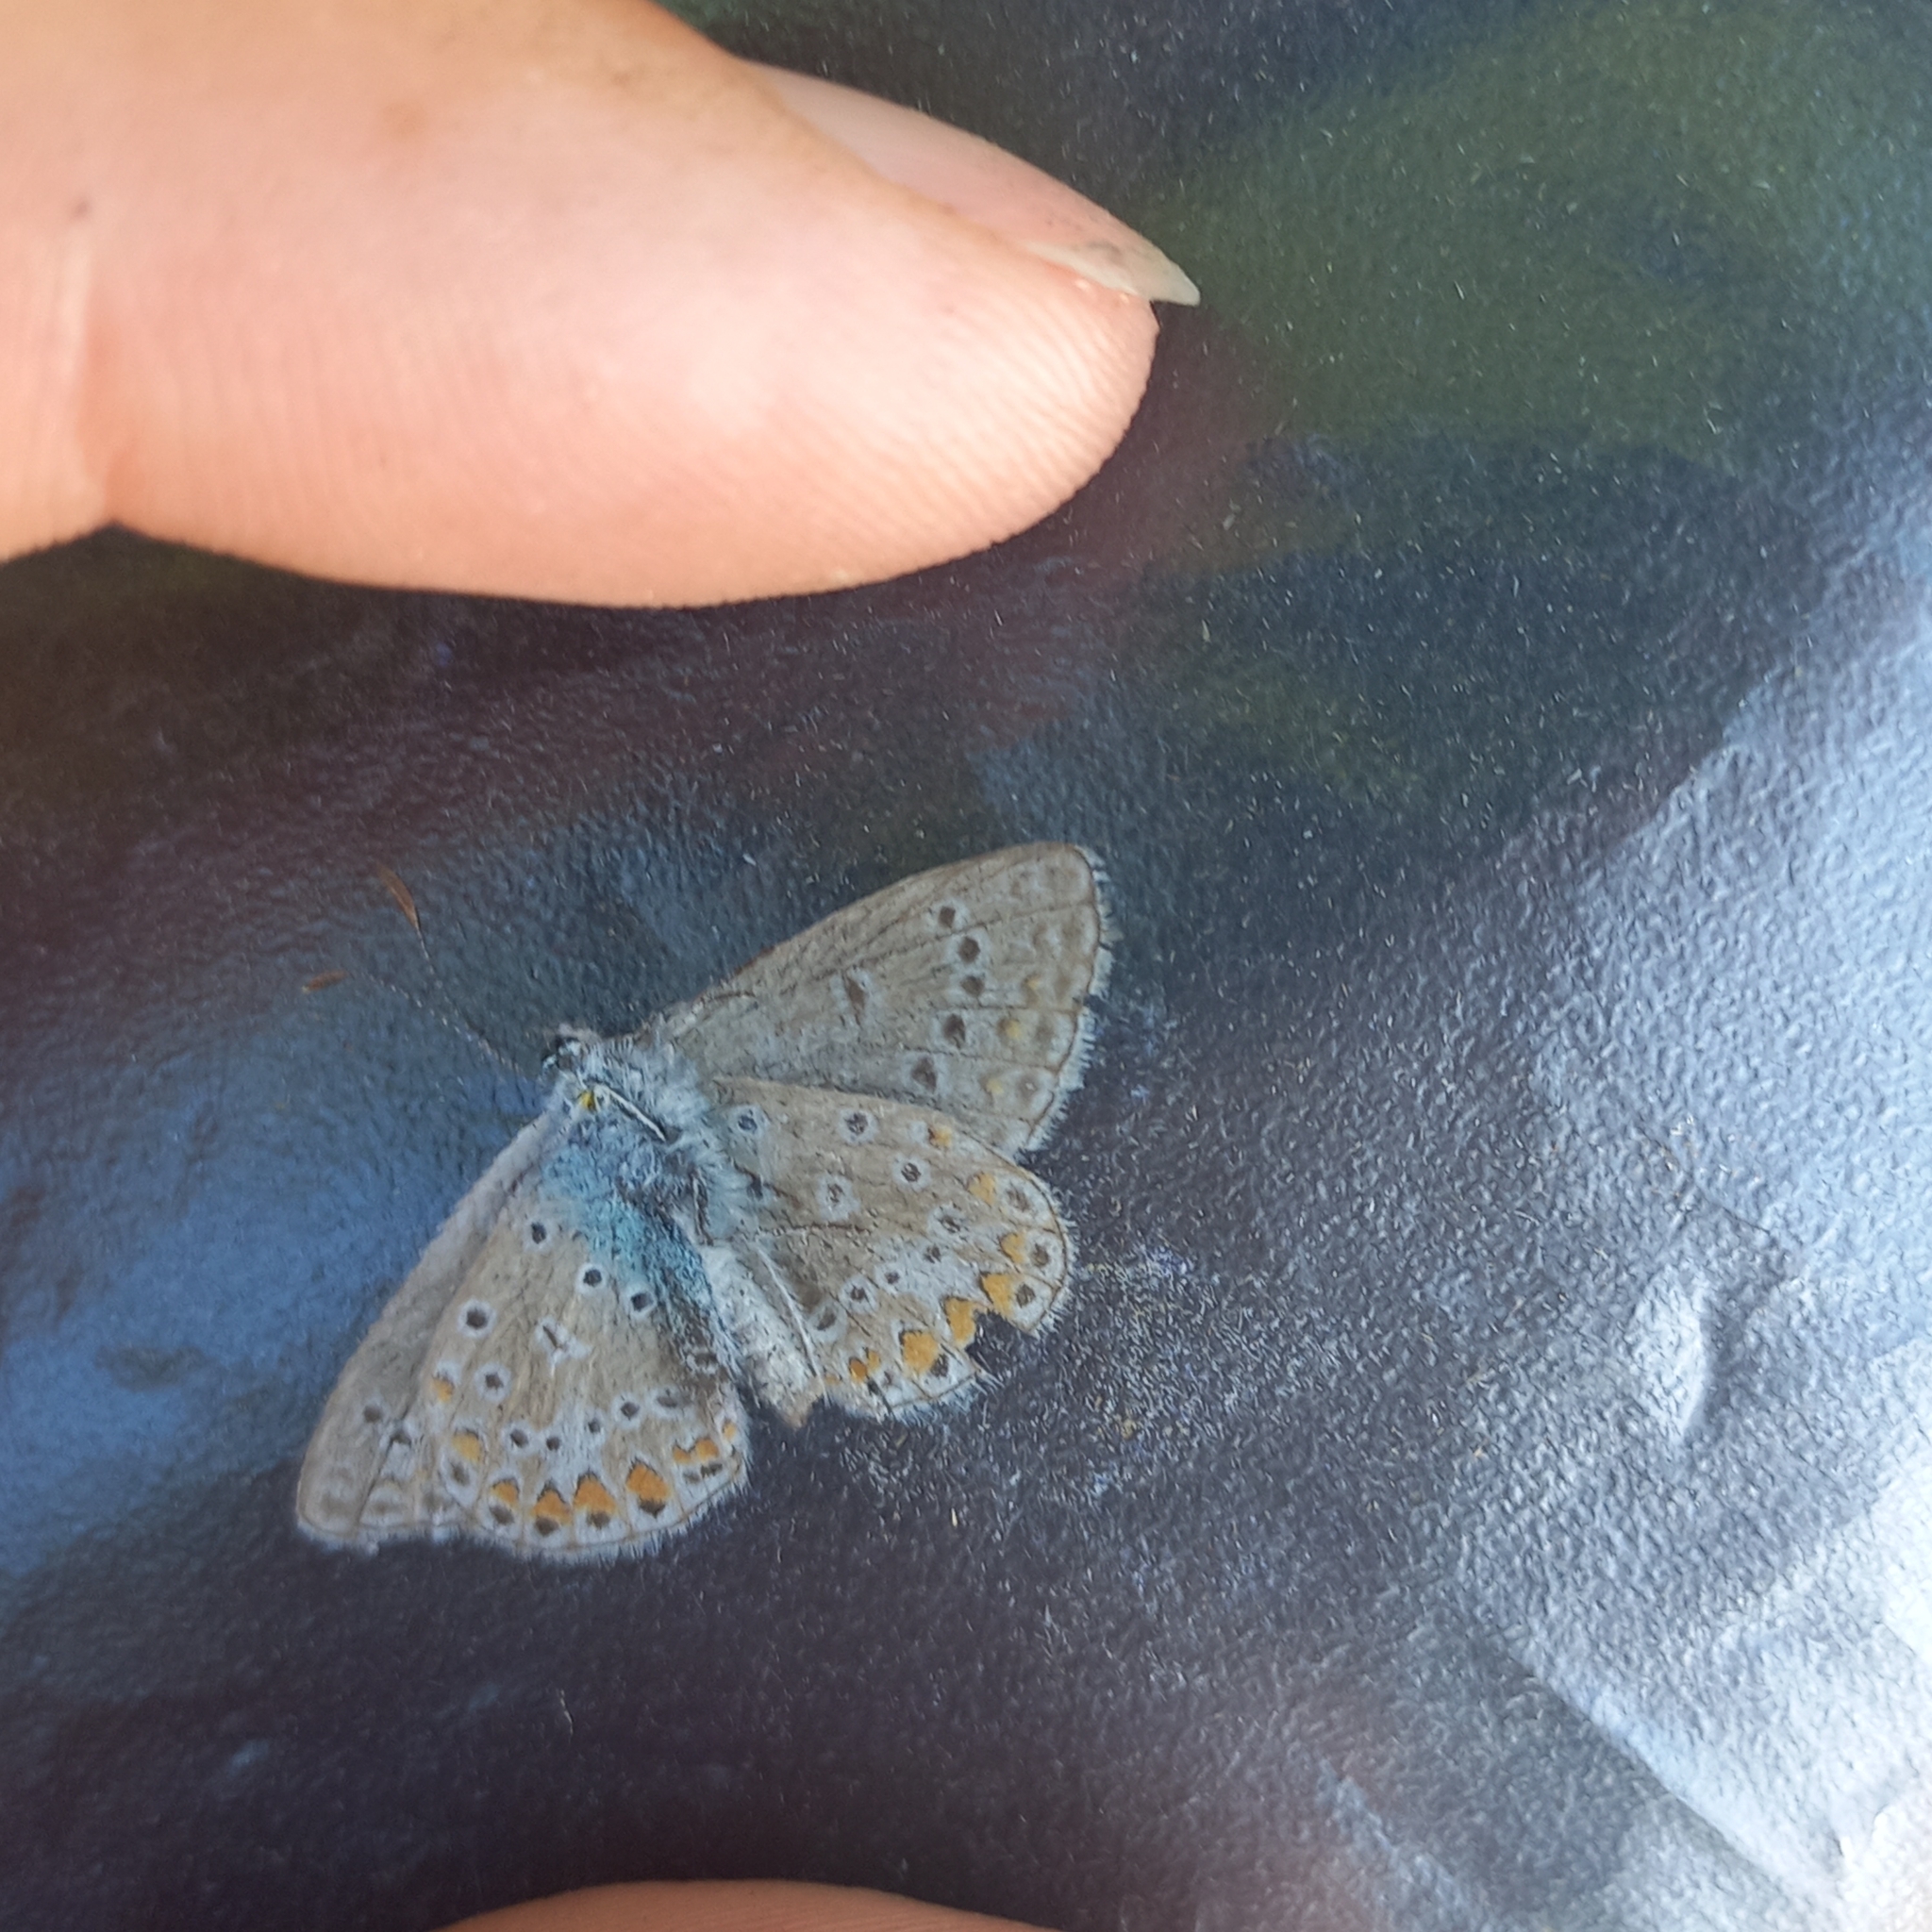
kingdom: Animalia
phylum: Arthropoda
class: Insecta
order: Lepidoptera
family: Lycaenidae
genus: Polyommatus
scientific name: Polyommatus icarus
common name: Common blue
